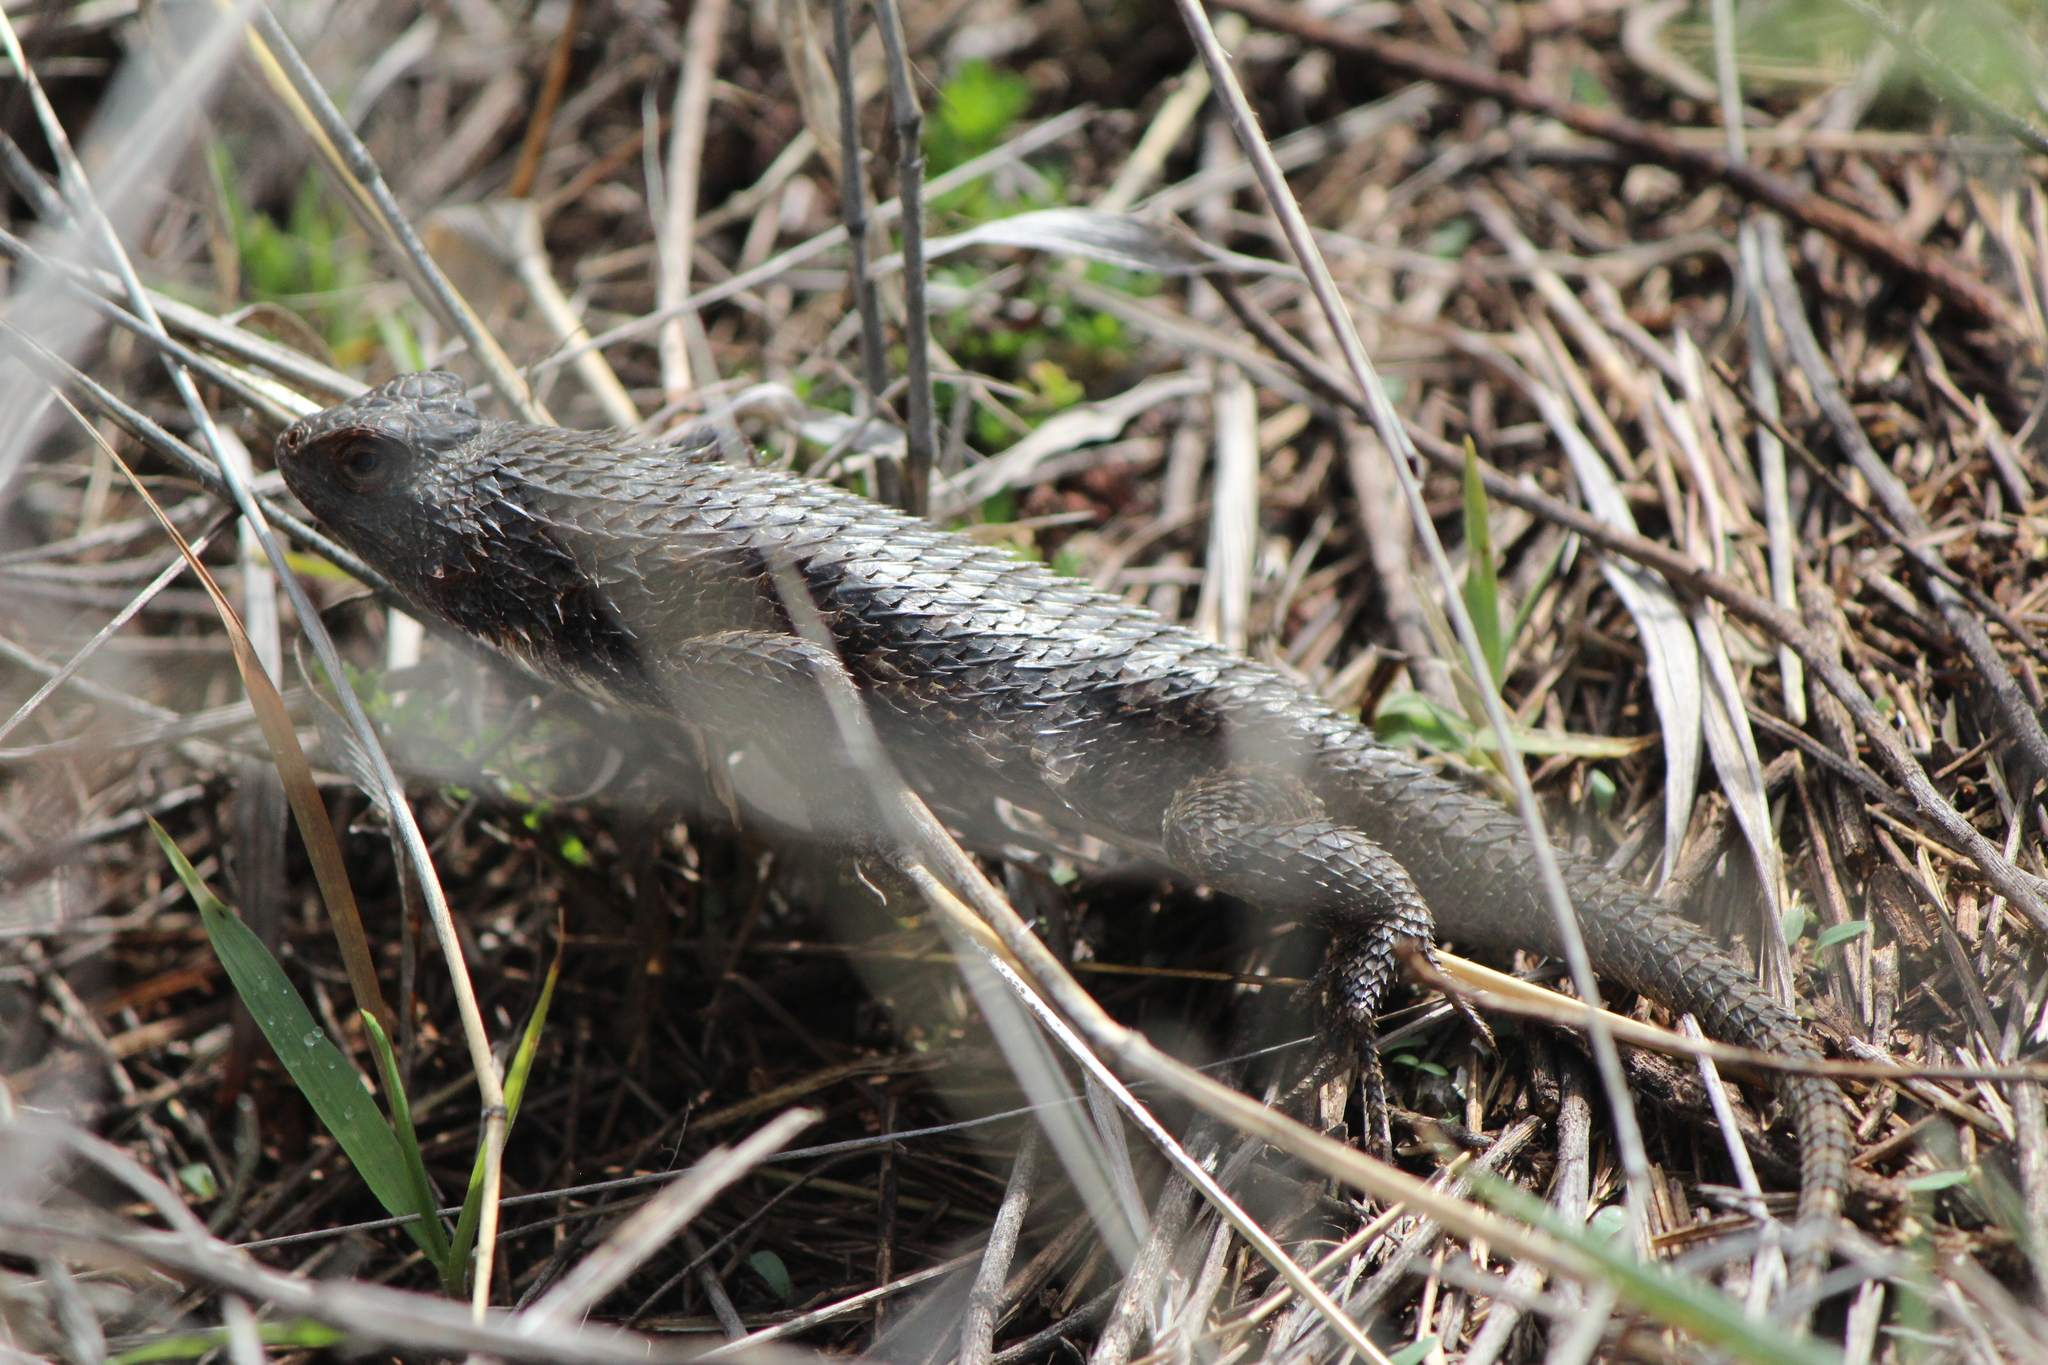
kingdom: Animalia
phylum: Chordata
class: Squamata
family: Phrynosomatidae
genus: Sceloporus
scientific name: Sceloporus spinosus
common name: Blue-spotted spiny lizard [caeruleopunctatus]
